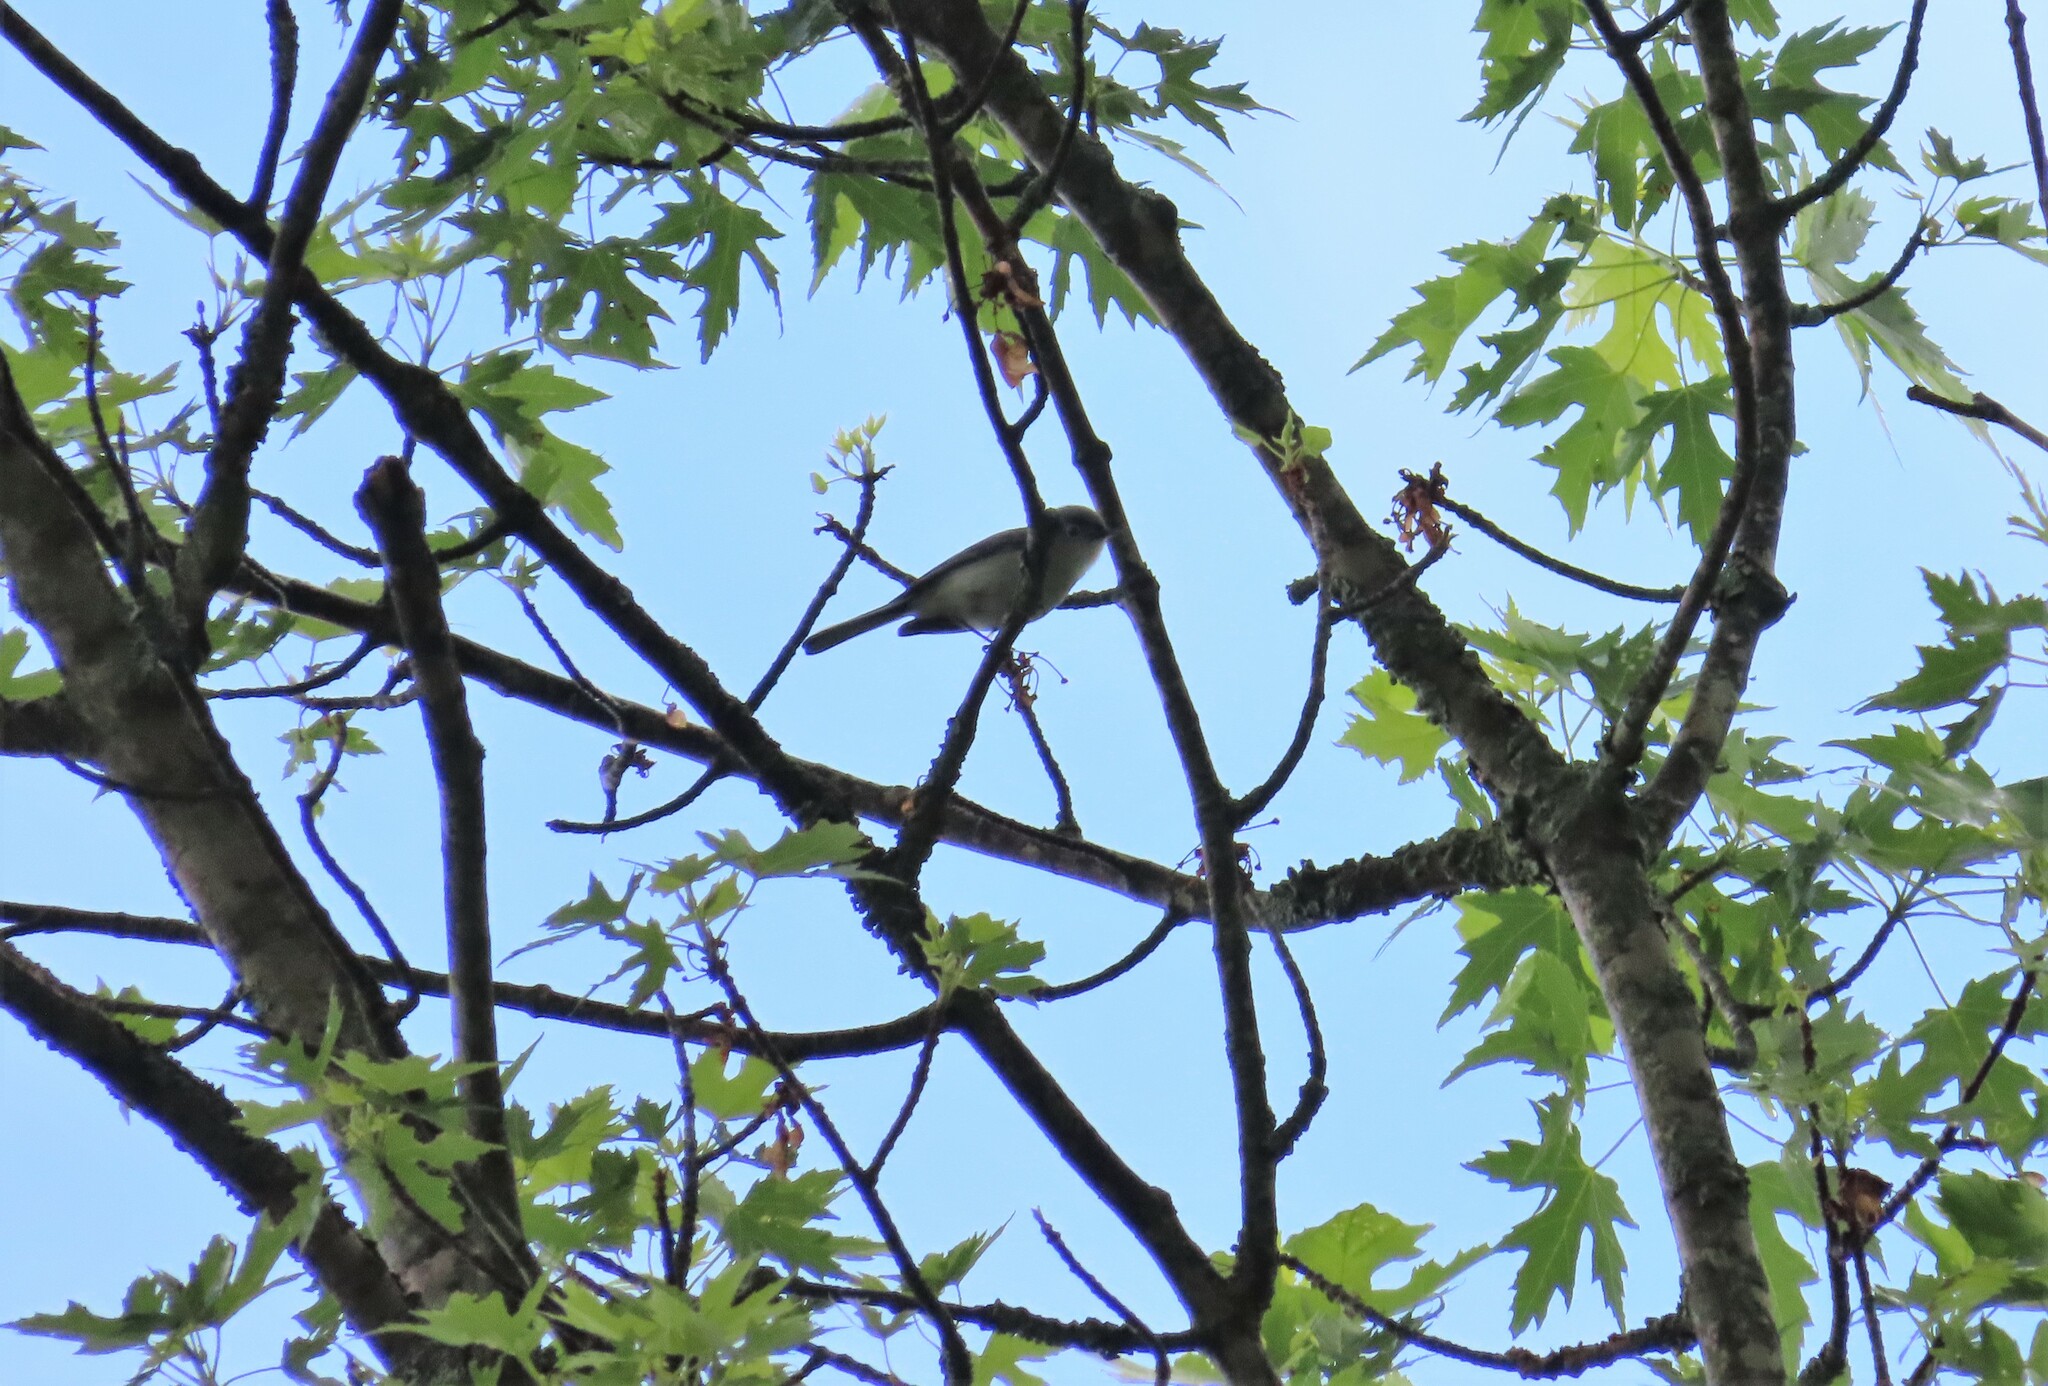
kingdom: Animalia
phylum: Chordata
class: Aves
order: Passeriformes
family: Polioptilidae
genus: Polioptila
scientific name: Polioptila caerulea
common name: Blue-gray gnatcatcher
